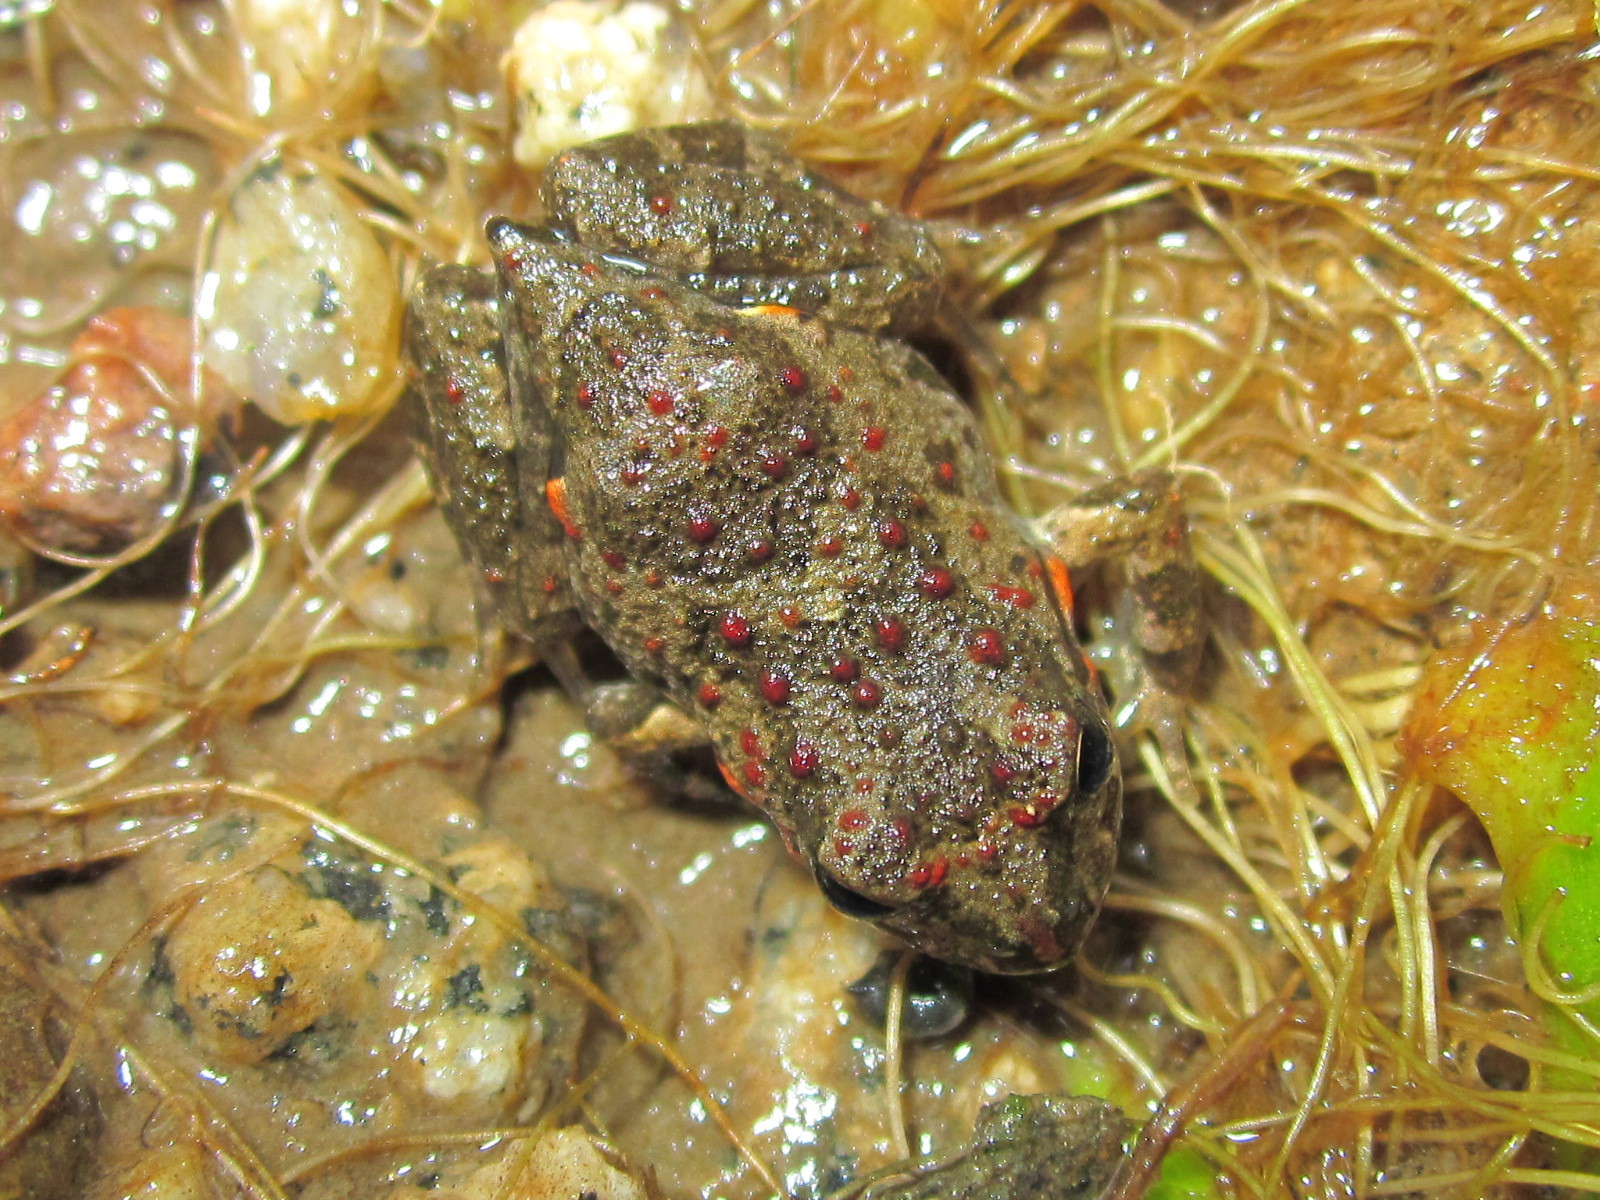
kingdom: Animalia
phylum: Chordata
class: Amphibia
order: Anura
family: Leptodactylidae
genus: Pleurodema
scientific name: Pleurodema thaul
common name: Chile four-eyed frog
